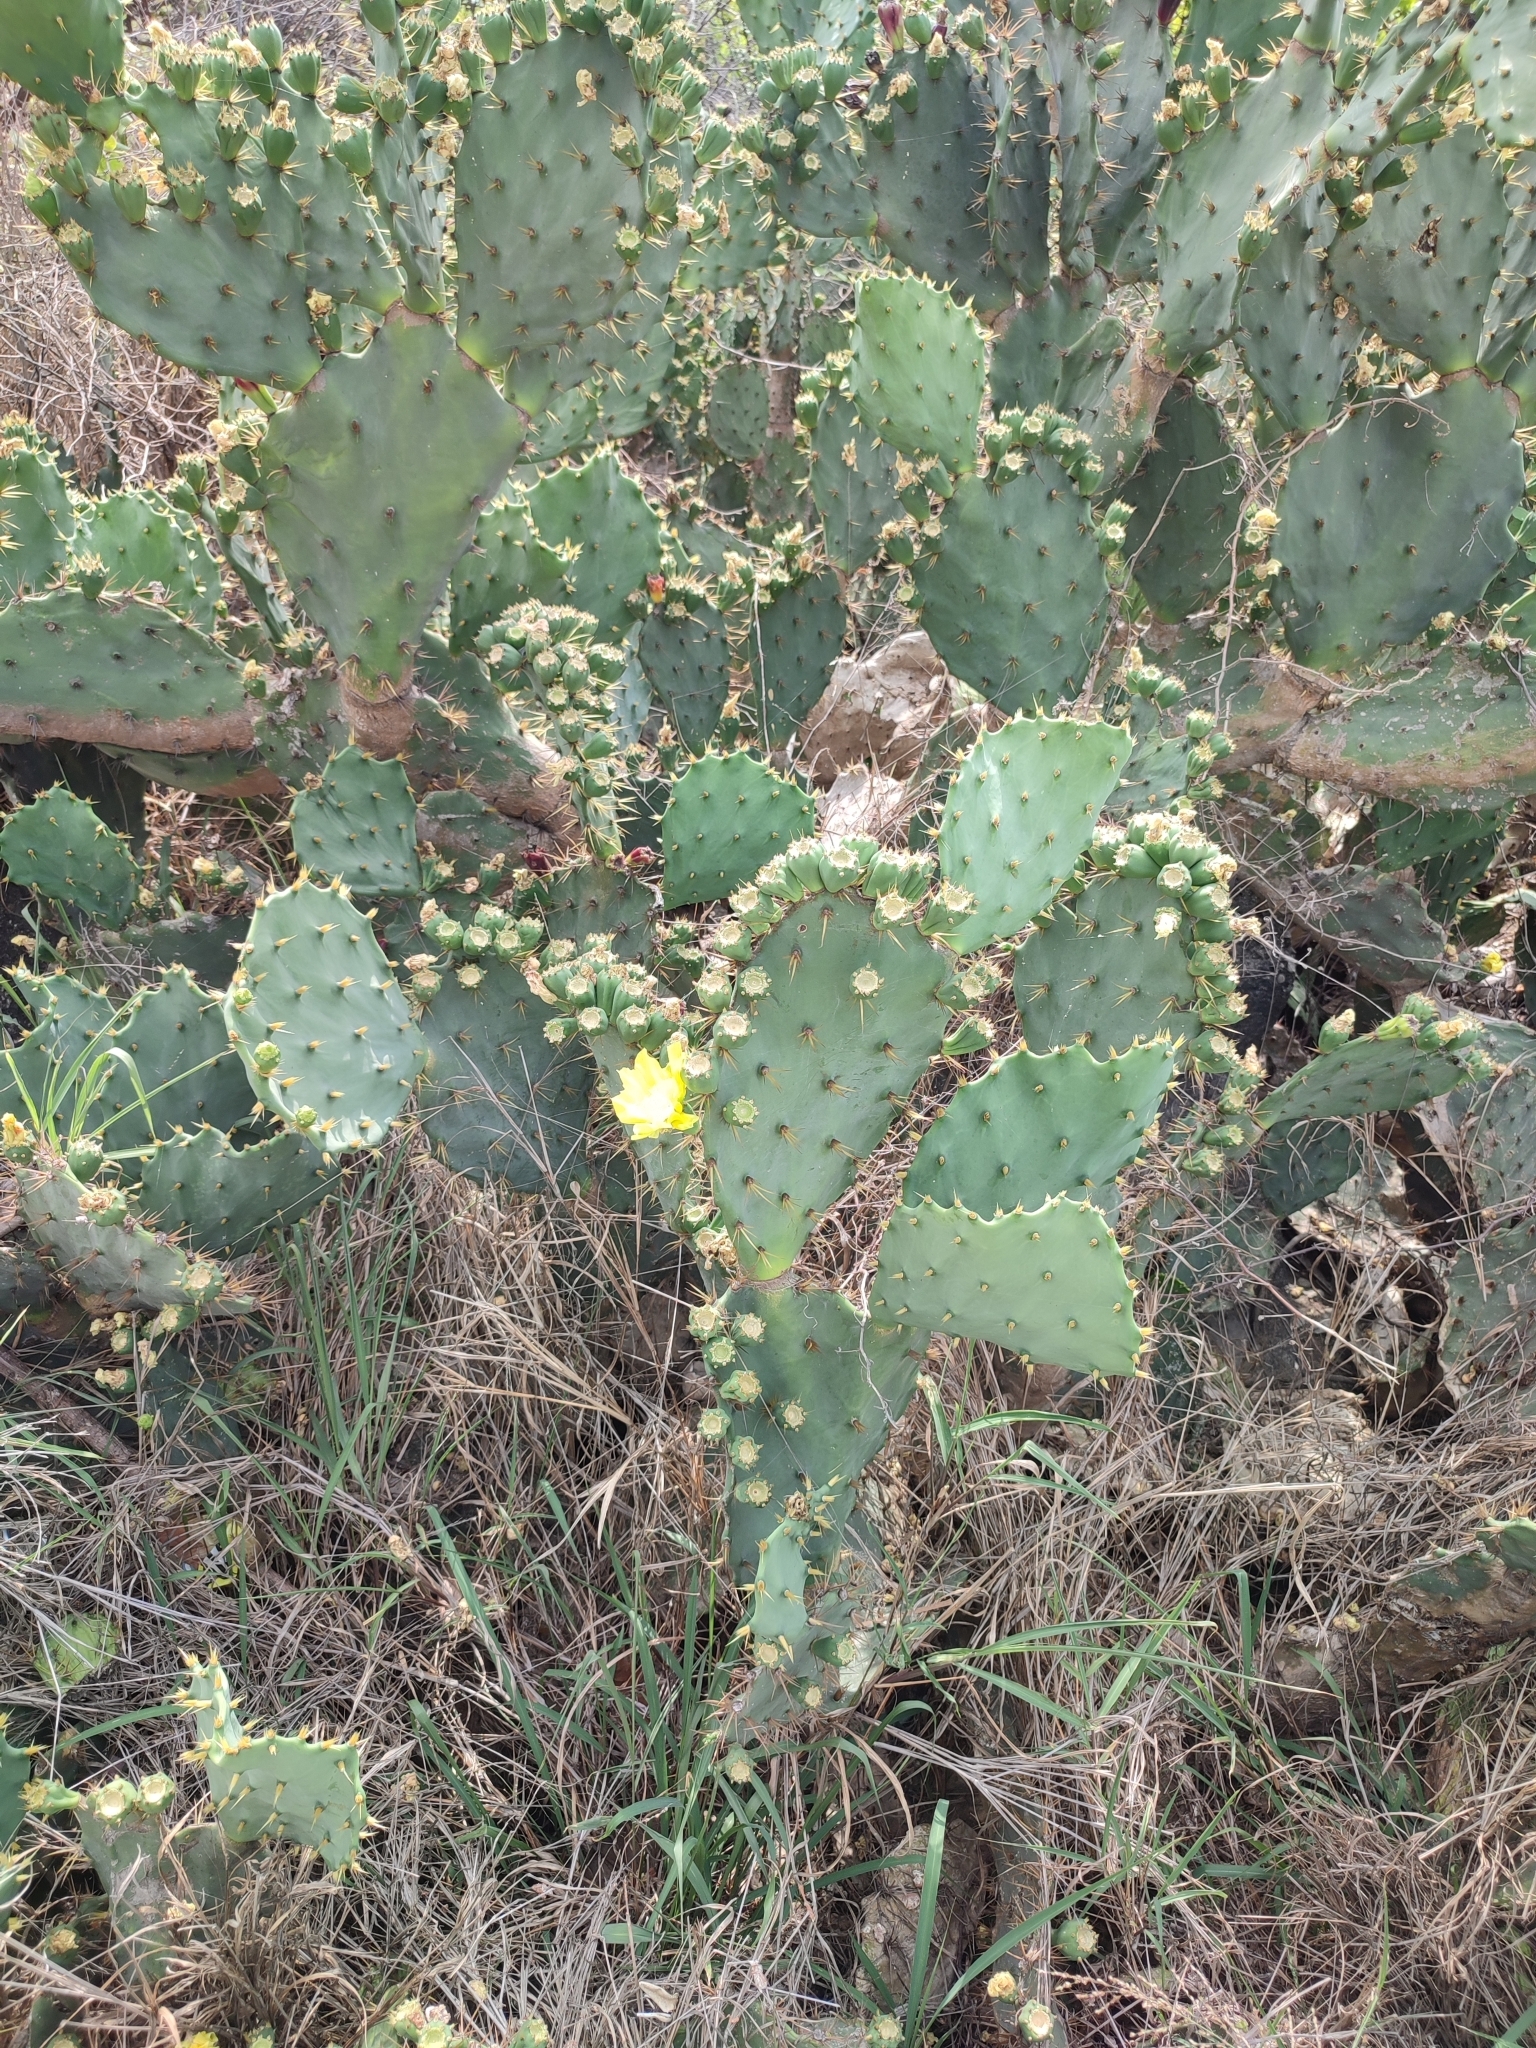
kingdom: Plantae
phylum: Tracheophyta
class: Magnoliopsida
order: Caryophyllales
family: Cactaceae
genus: Opuntia
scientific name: Opuntia dillenii
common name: Sour prickle
